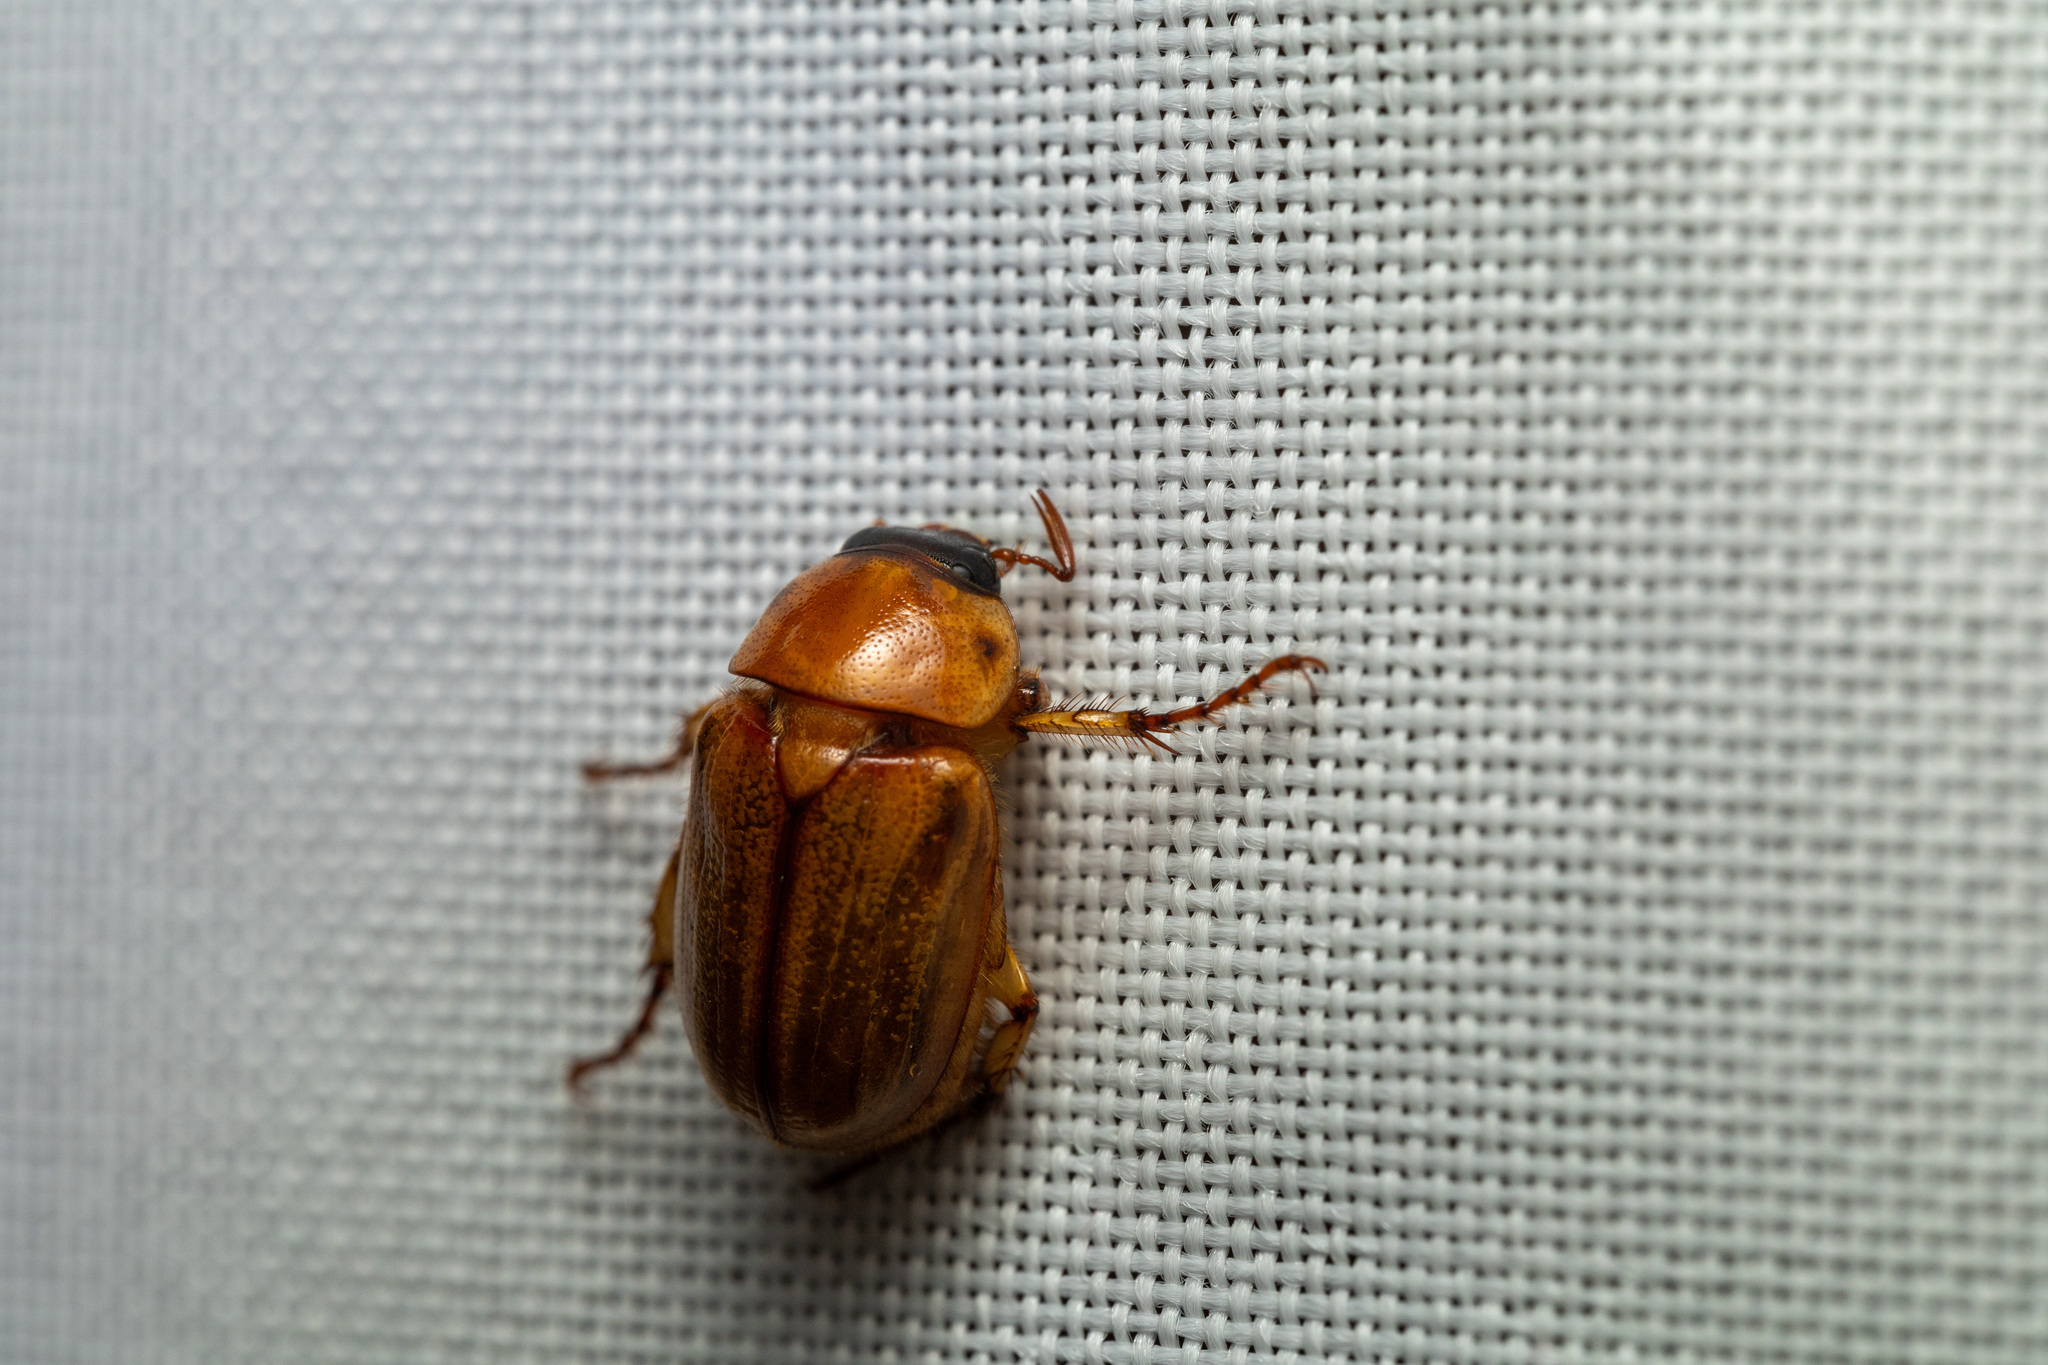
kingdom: Animalia
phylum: Arthropoda
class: Insecta
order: Coleoptera
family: Scarabaeidae
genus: Cyclocephala
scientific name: Cyclocephala lurida
